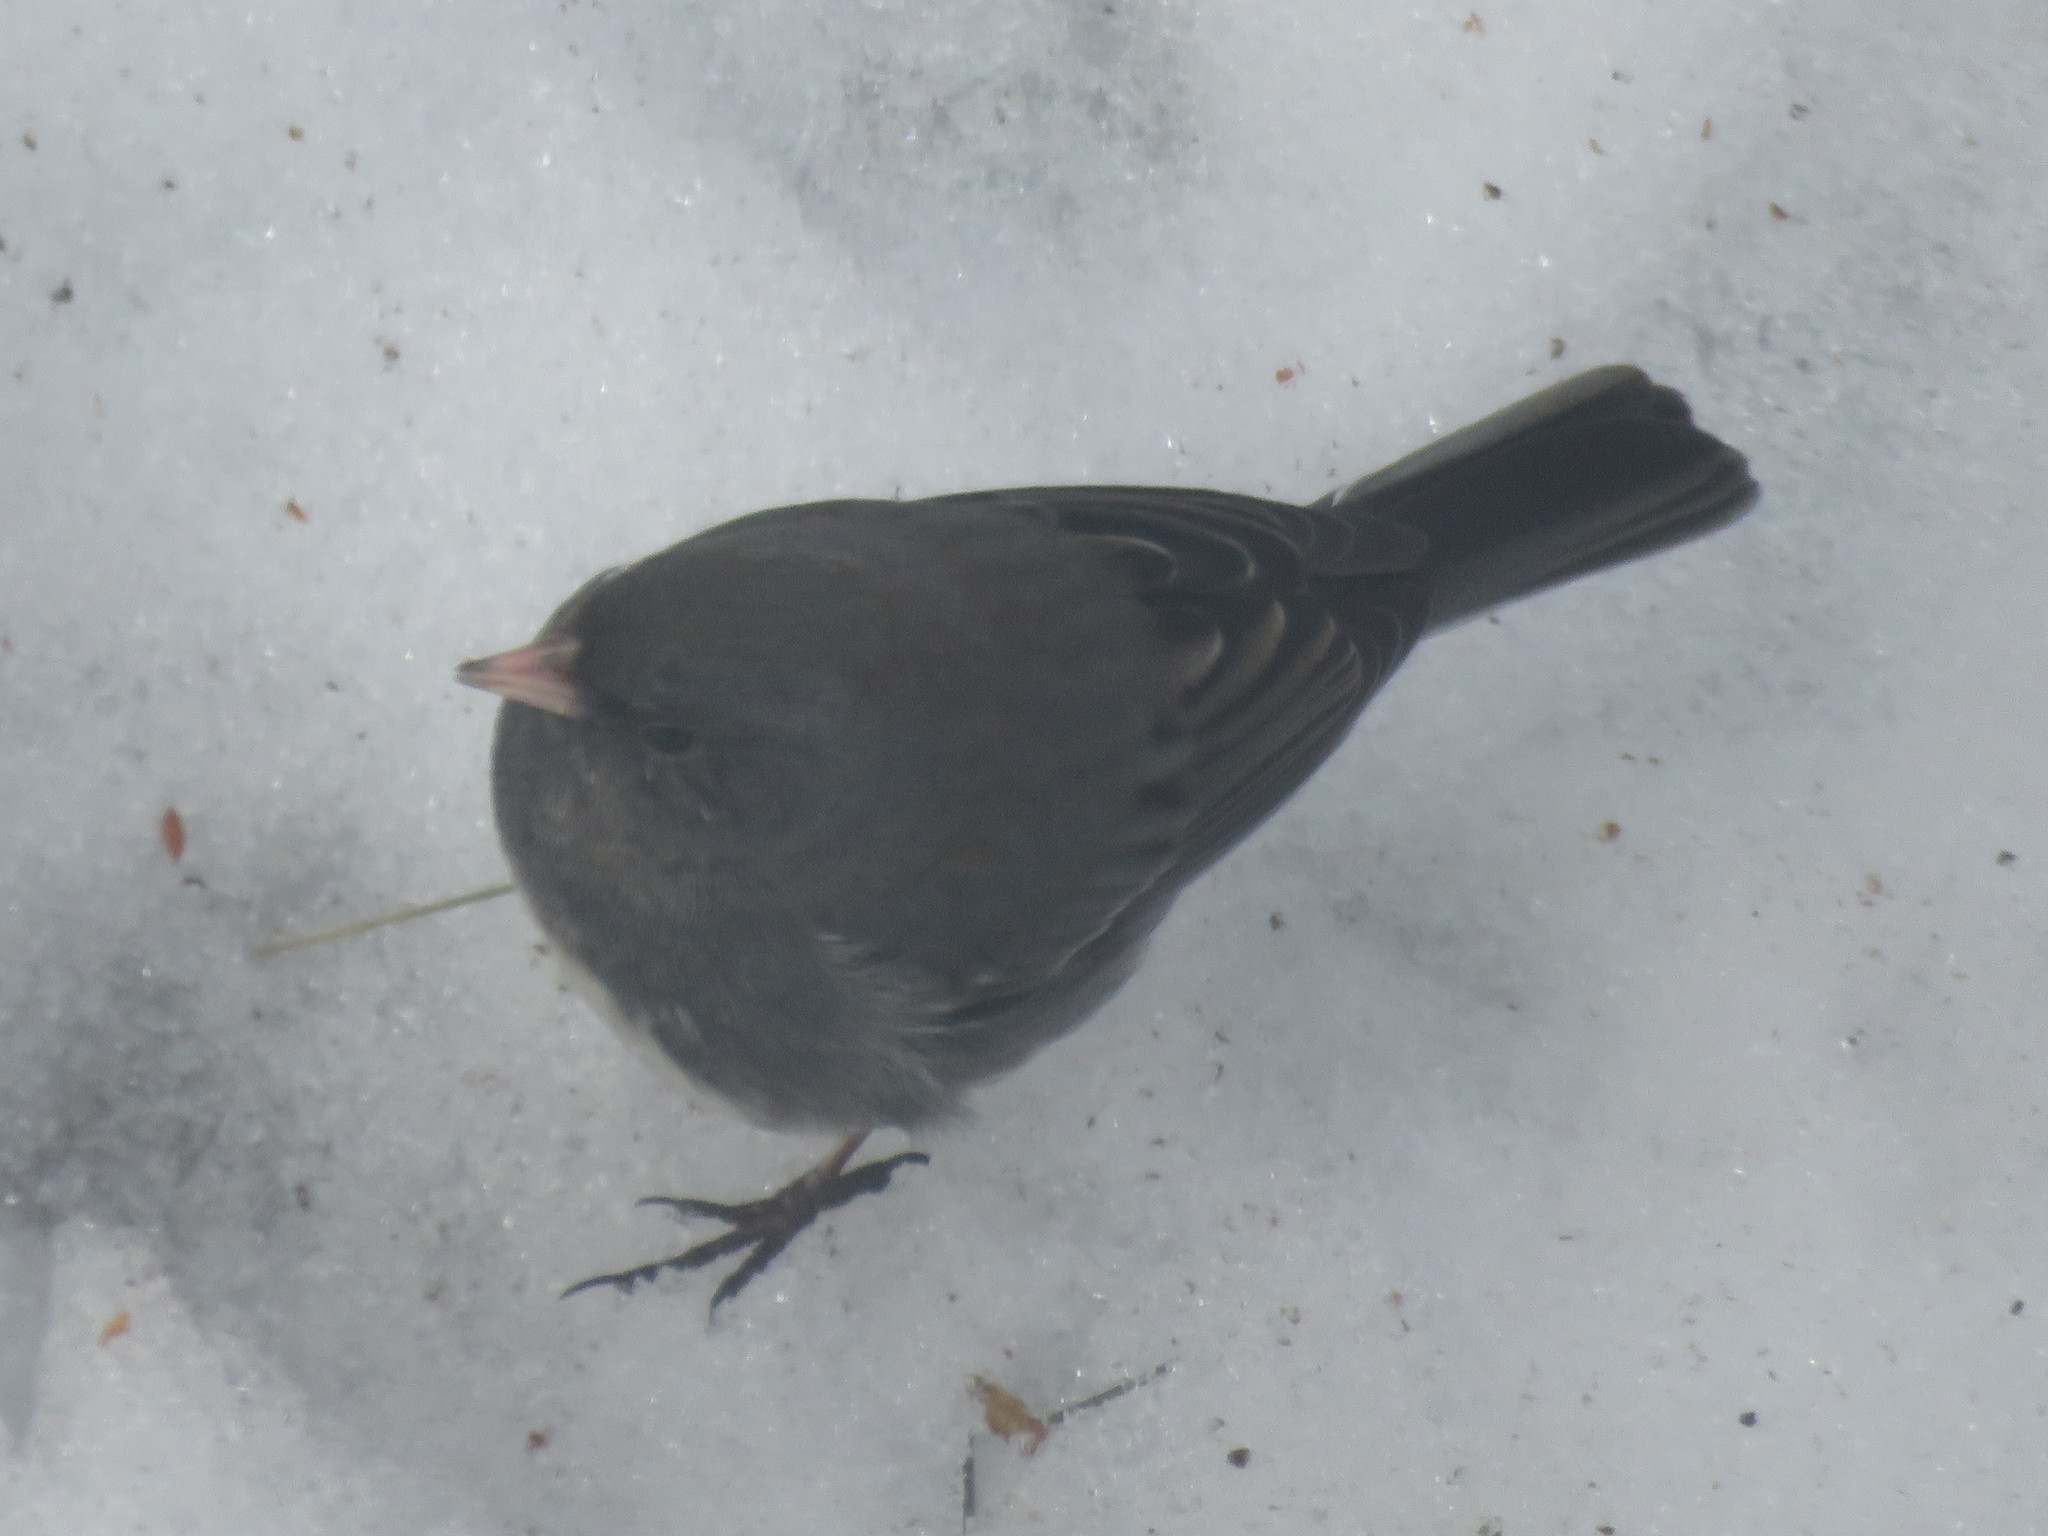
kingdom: Animalia
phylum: Chordata
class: Aves
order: Passeriformes
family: Passerellidae
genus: Junco
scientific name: Junco hyemalis
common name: Dark-eyed junco
